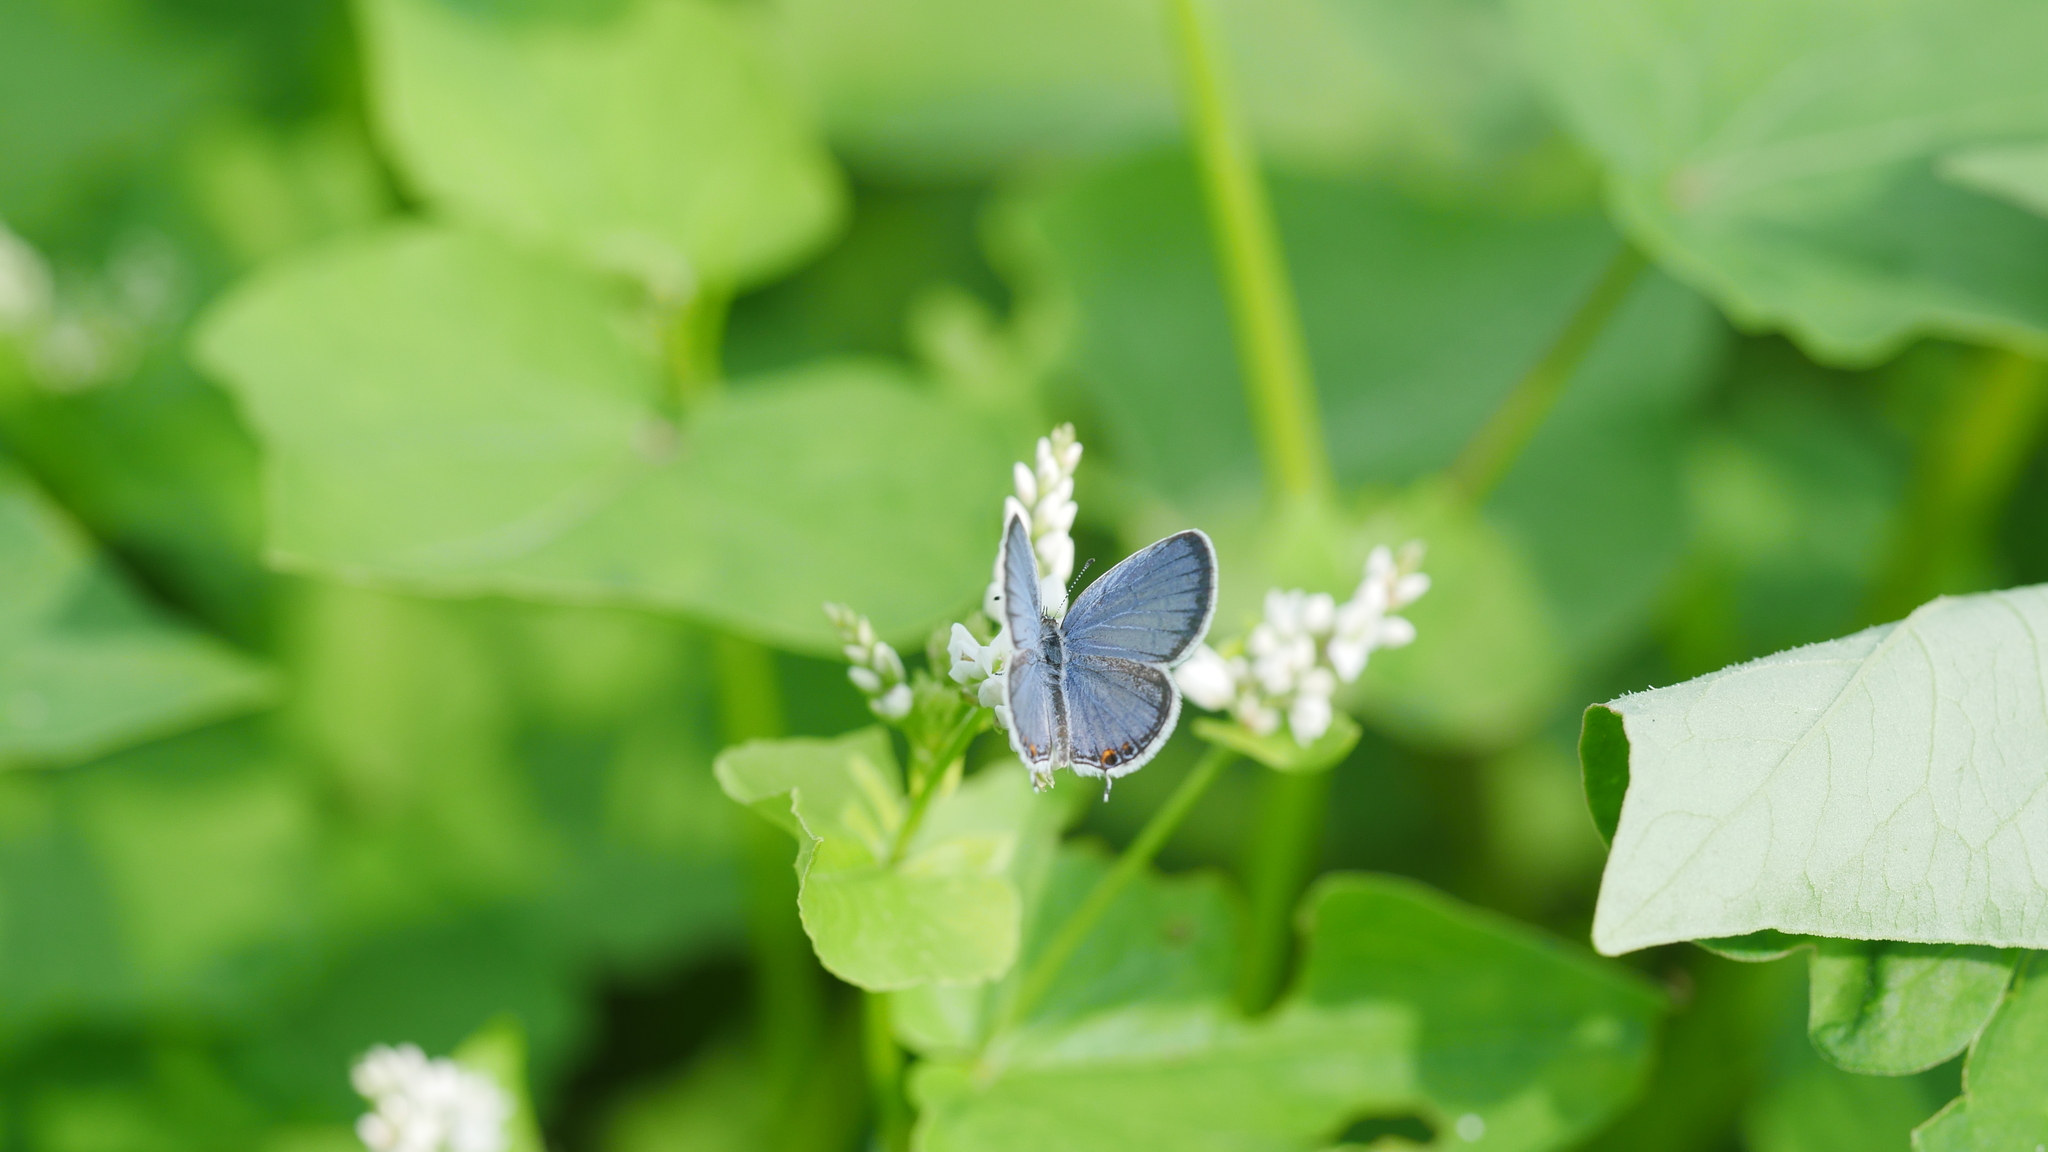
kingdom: Animalia
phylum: Arthropoda
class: Insecta
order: Lepidoptera
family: Lycaenidae
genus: Elkalyce
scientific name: Elkalyce comyntas
